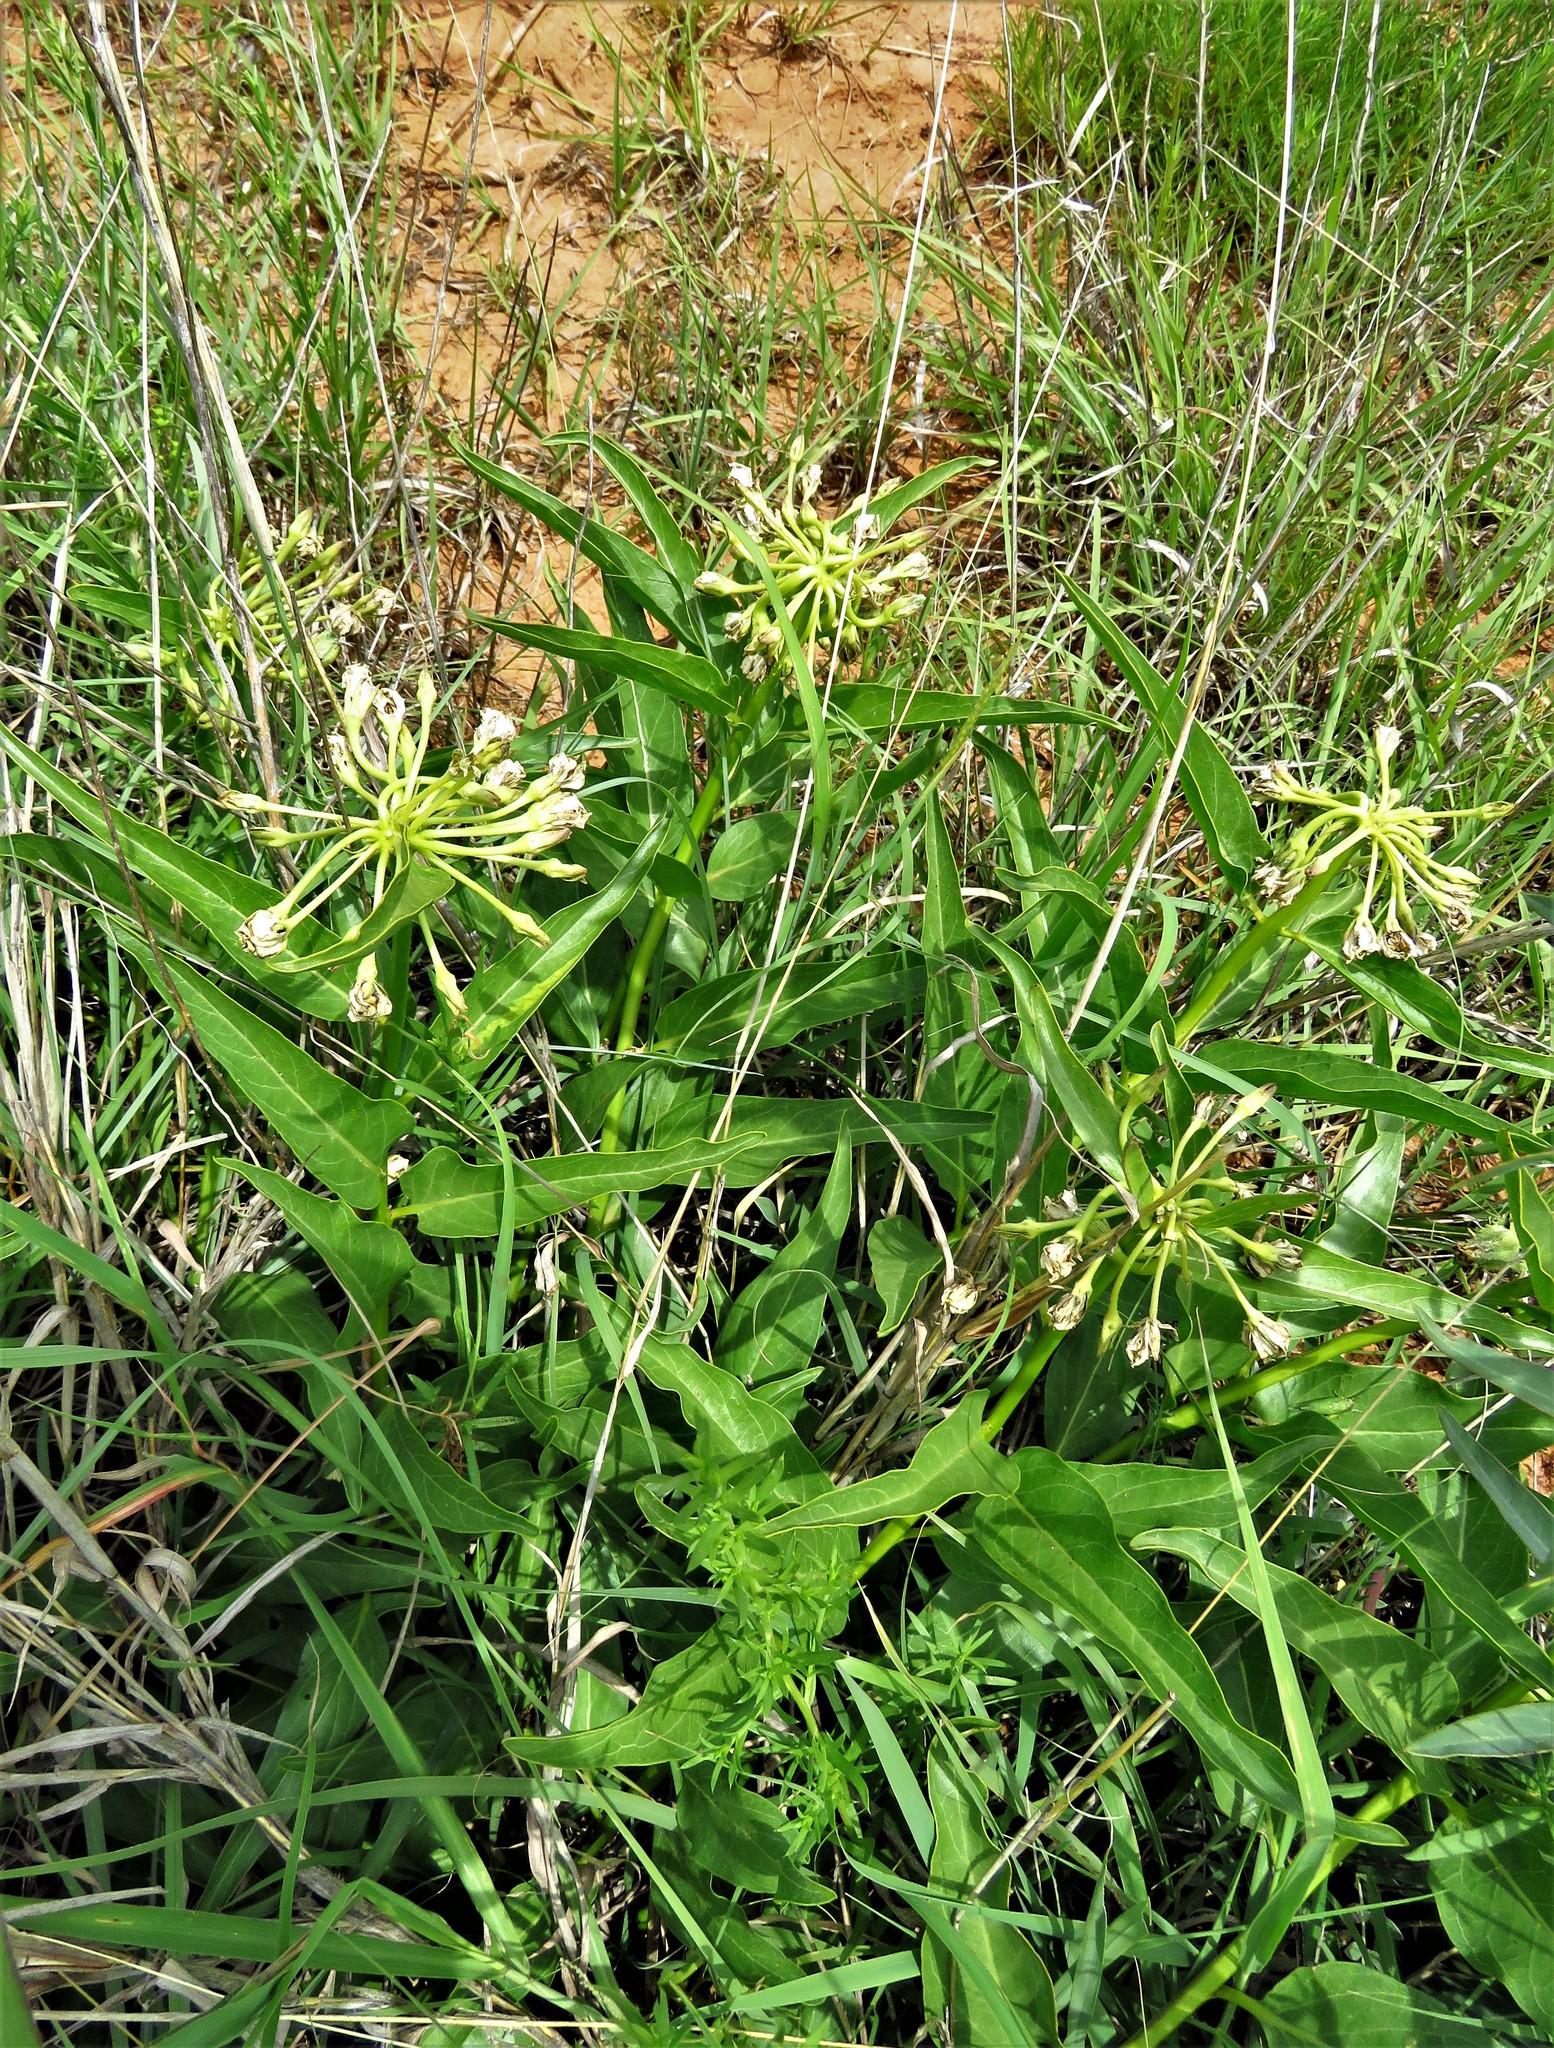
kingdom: Plantae
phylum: Tracheophyta
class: Magnoliopsida
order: Gentianales
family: Apocynaceae
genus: Asclepias
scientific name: Asclepias asperula
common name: Antelope horns
